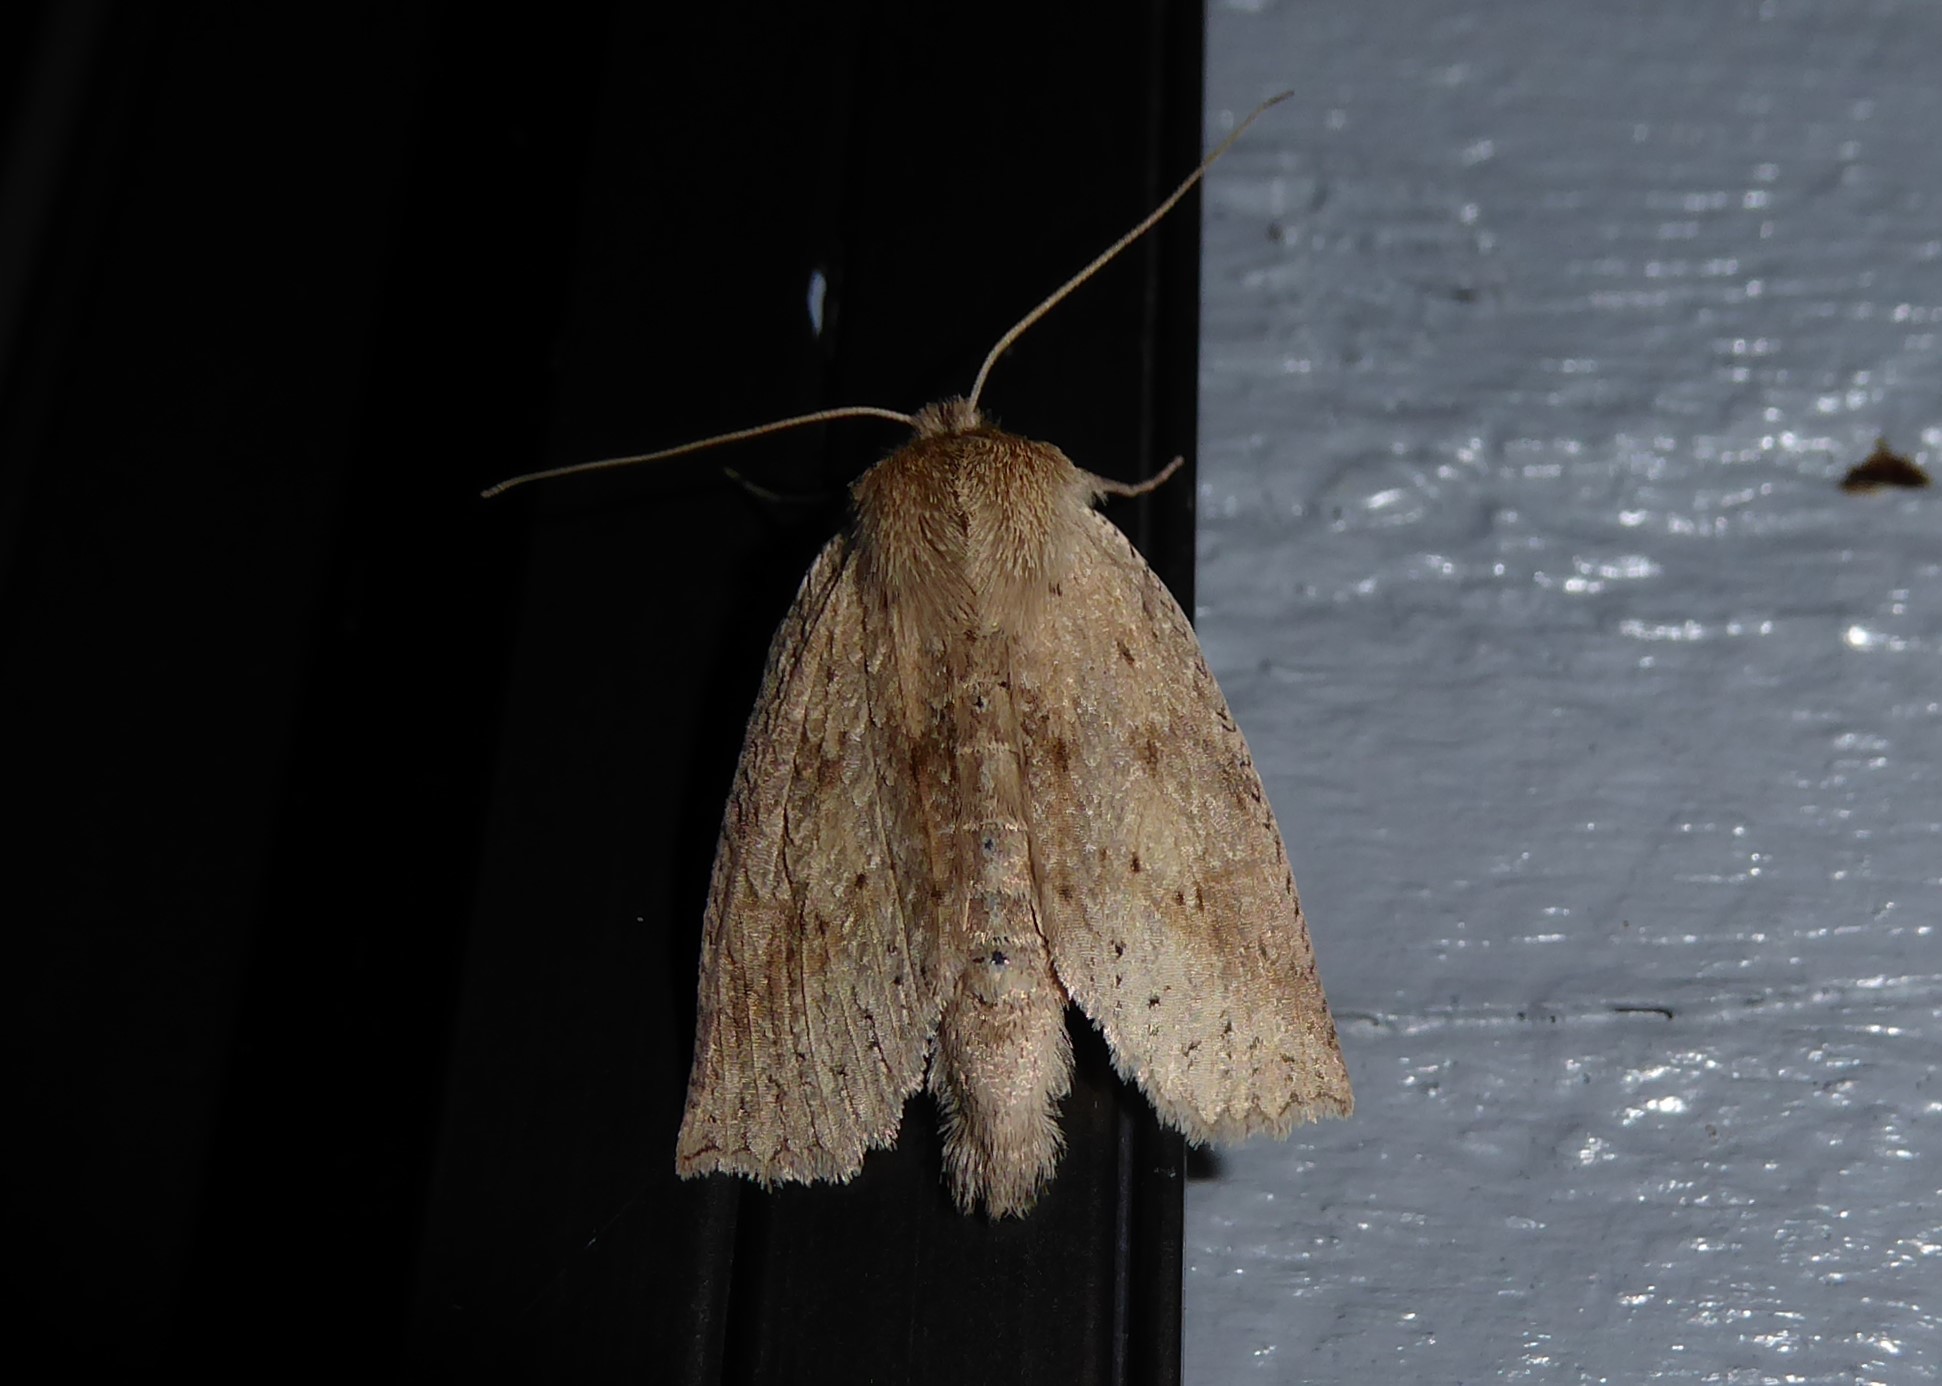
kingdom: Animalia
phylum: Arthropoda
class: Insecta
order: Lepidoptera
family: Geometridae
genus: Declana
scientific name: Declana leptomera
